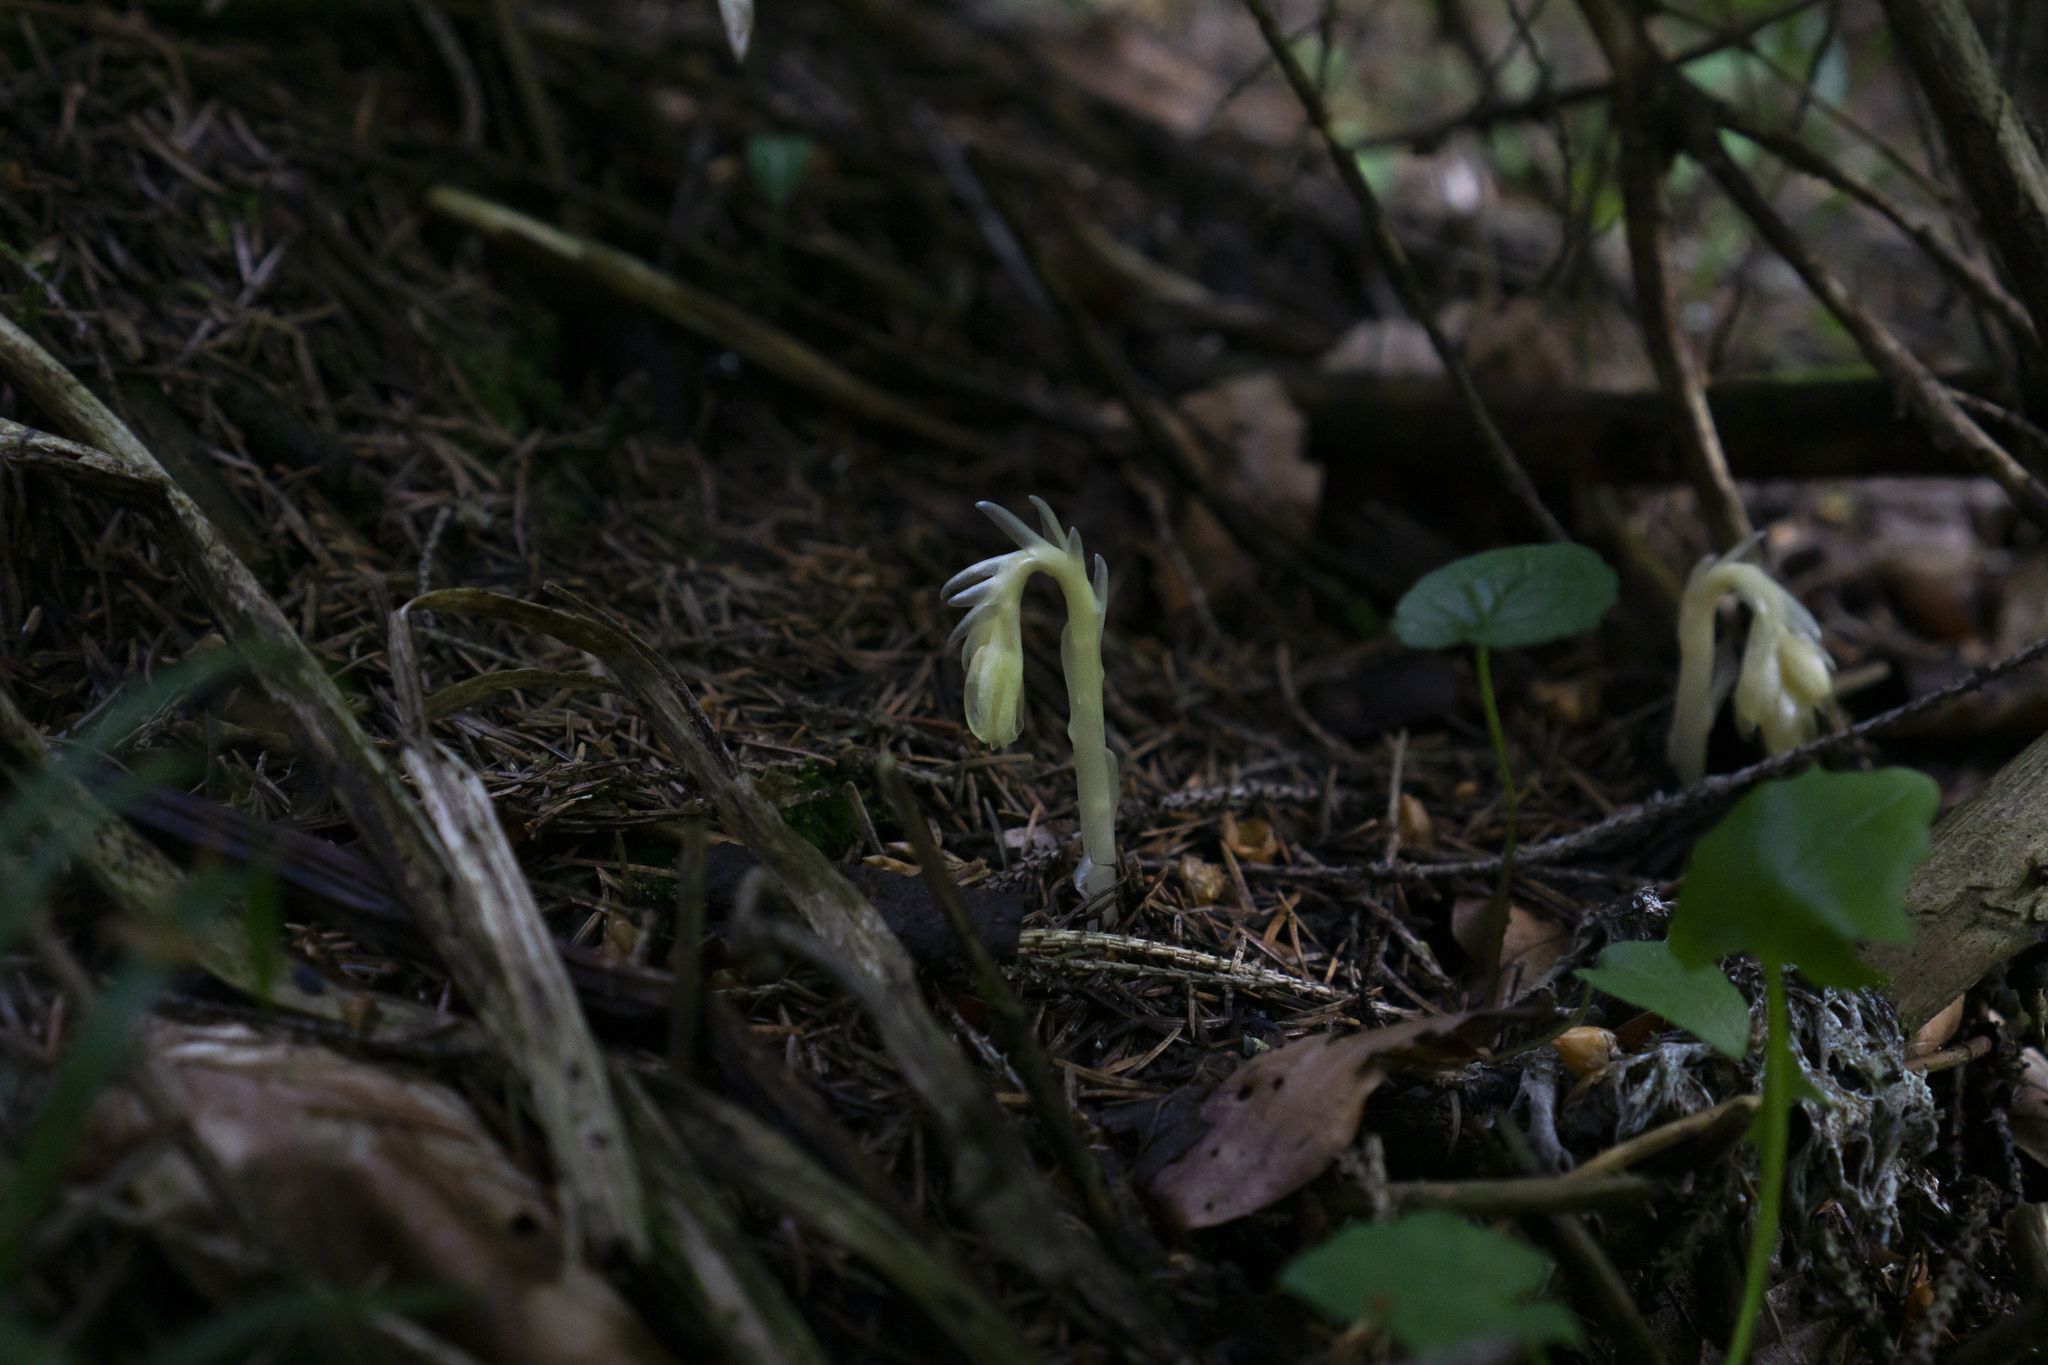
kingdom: Plantae
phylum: Tracheophyta
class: Magnoliopsida
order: Ericales
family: Ericaceae
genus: Hypopitys
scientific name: Hypopitys monotropa
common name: Yellow bird's-nest
